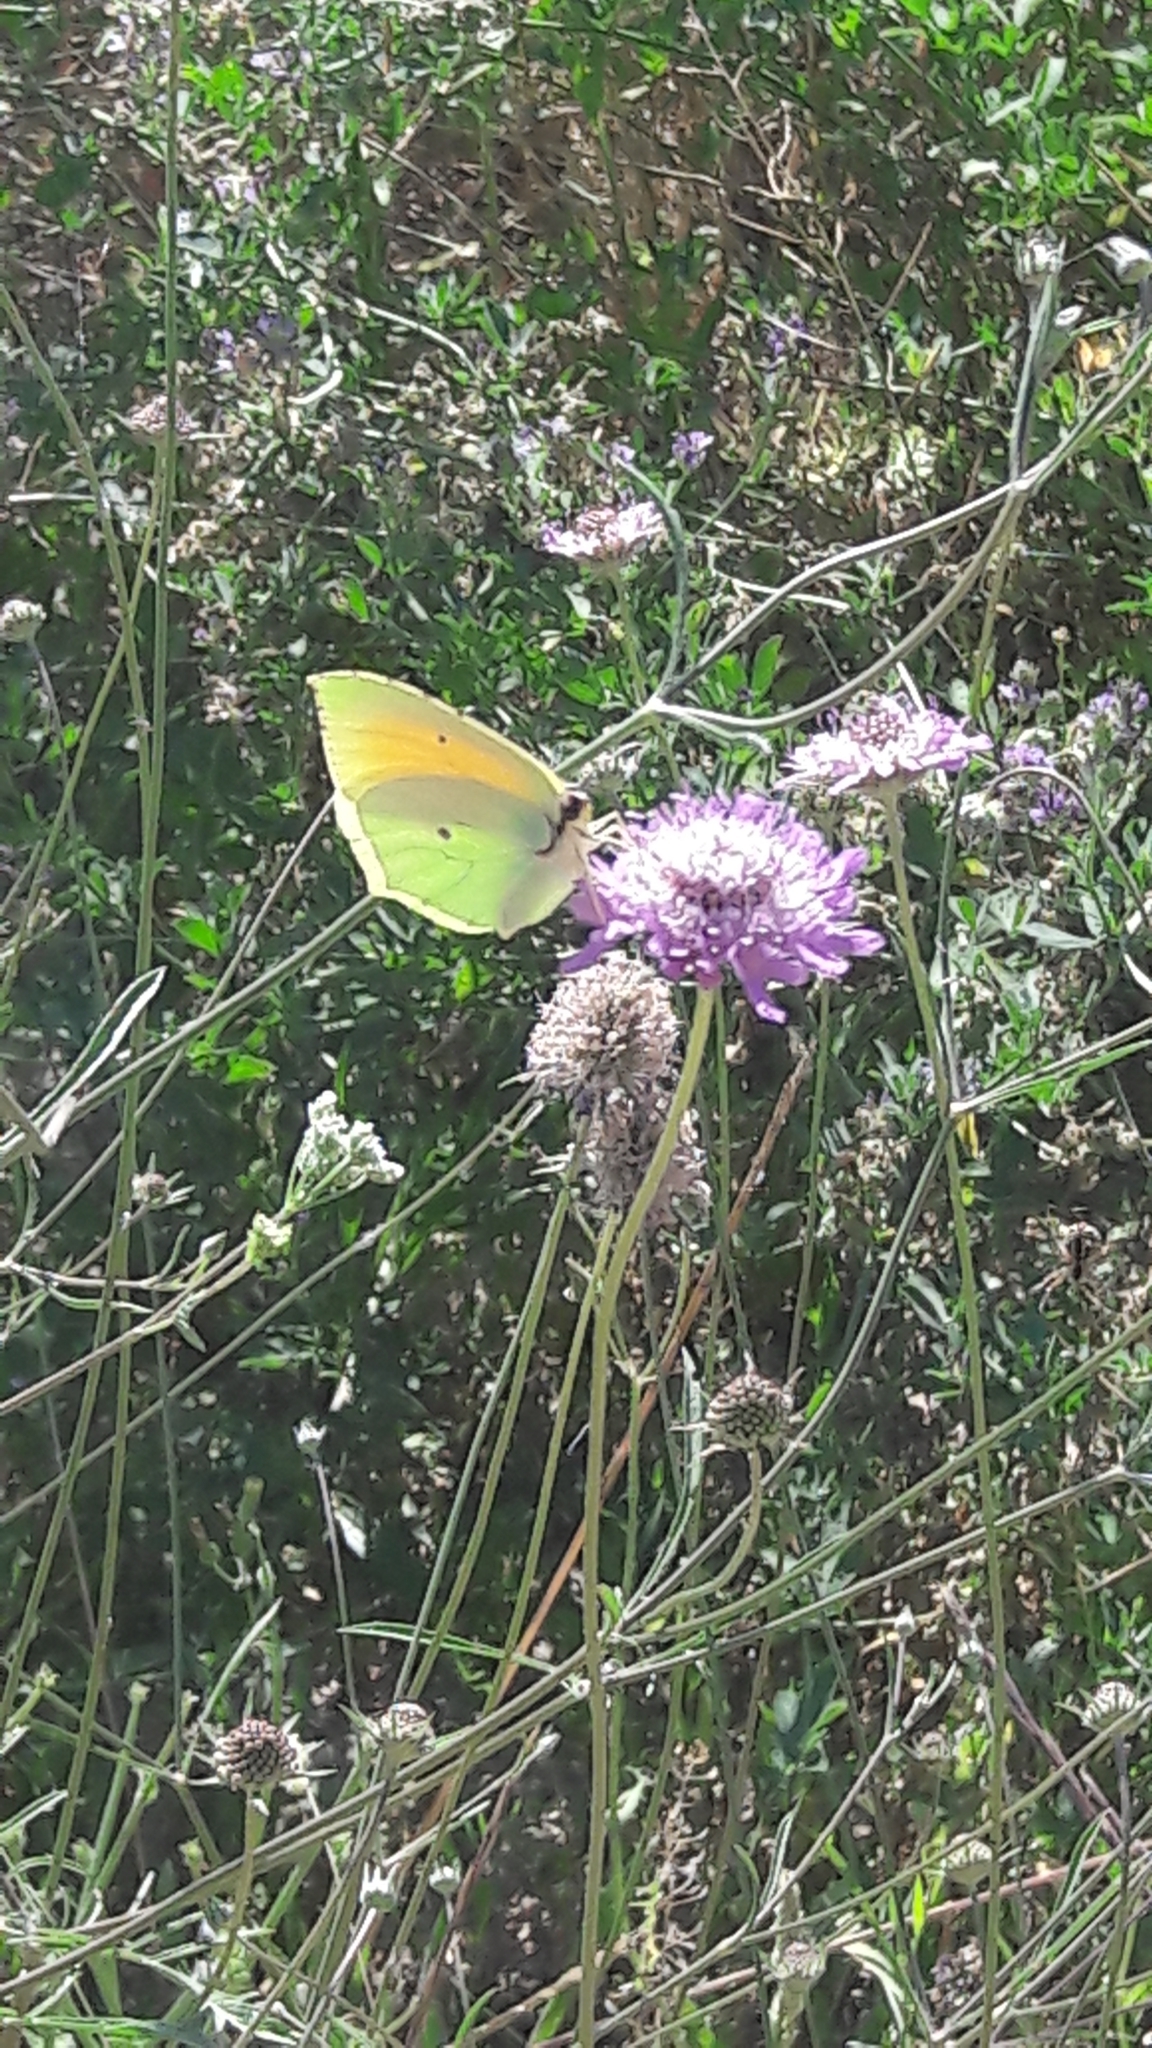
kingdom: Animalia
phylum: Arthropoda
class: Insecta
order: Lepidoptera
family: Pieridae
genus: Gonepteryx
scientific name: Gonepteryx cleopatra
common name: Cleopatra
